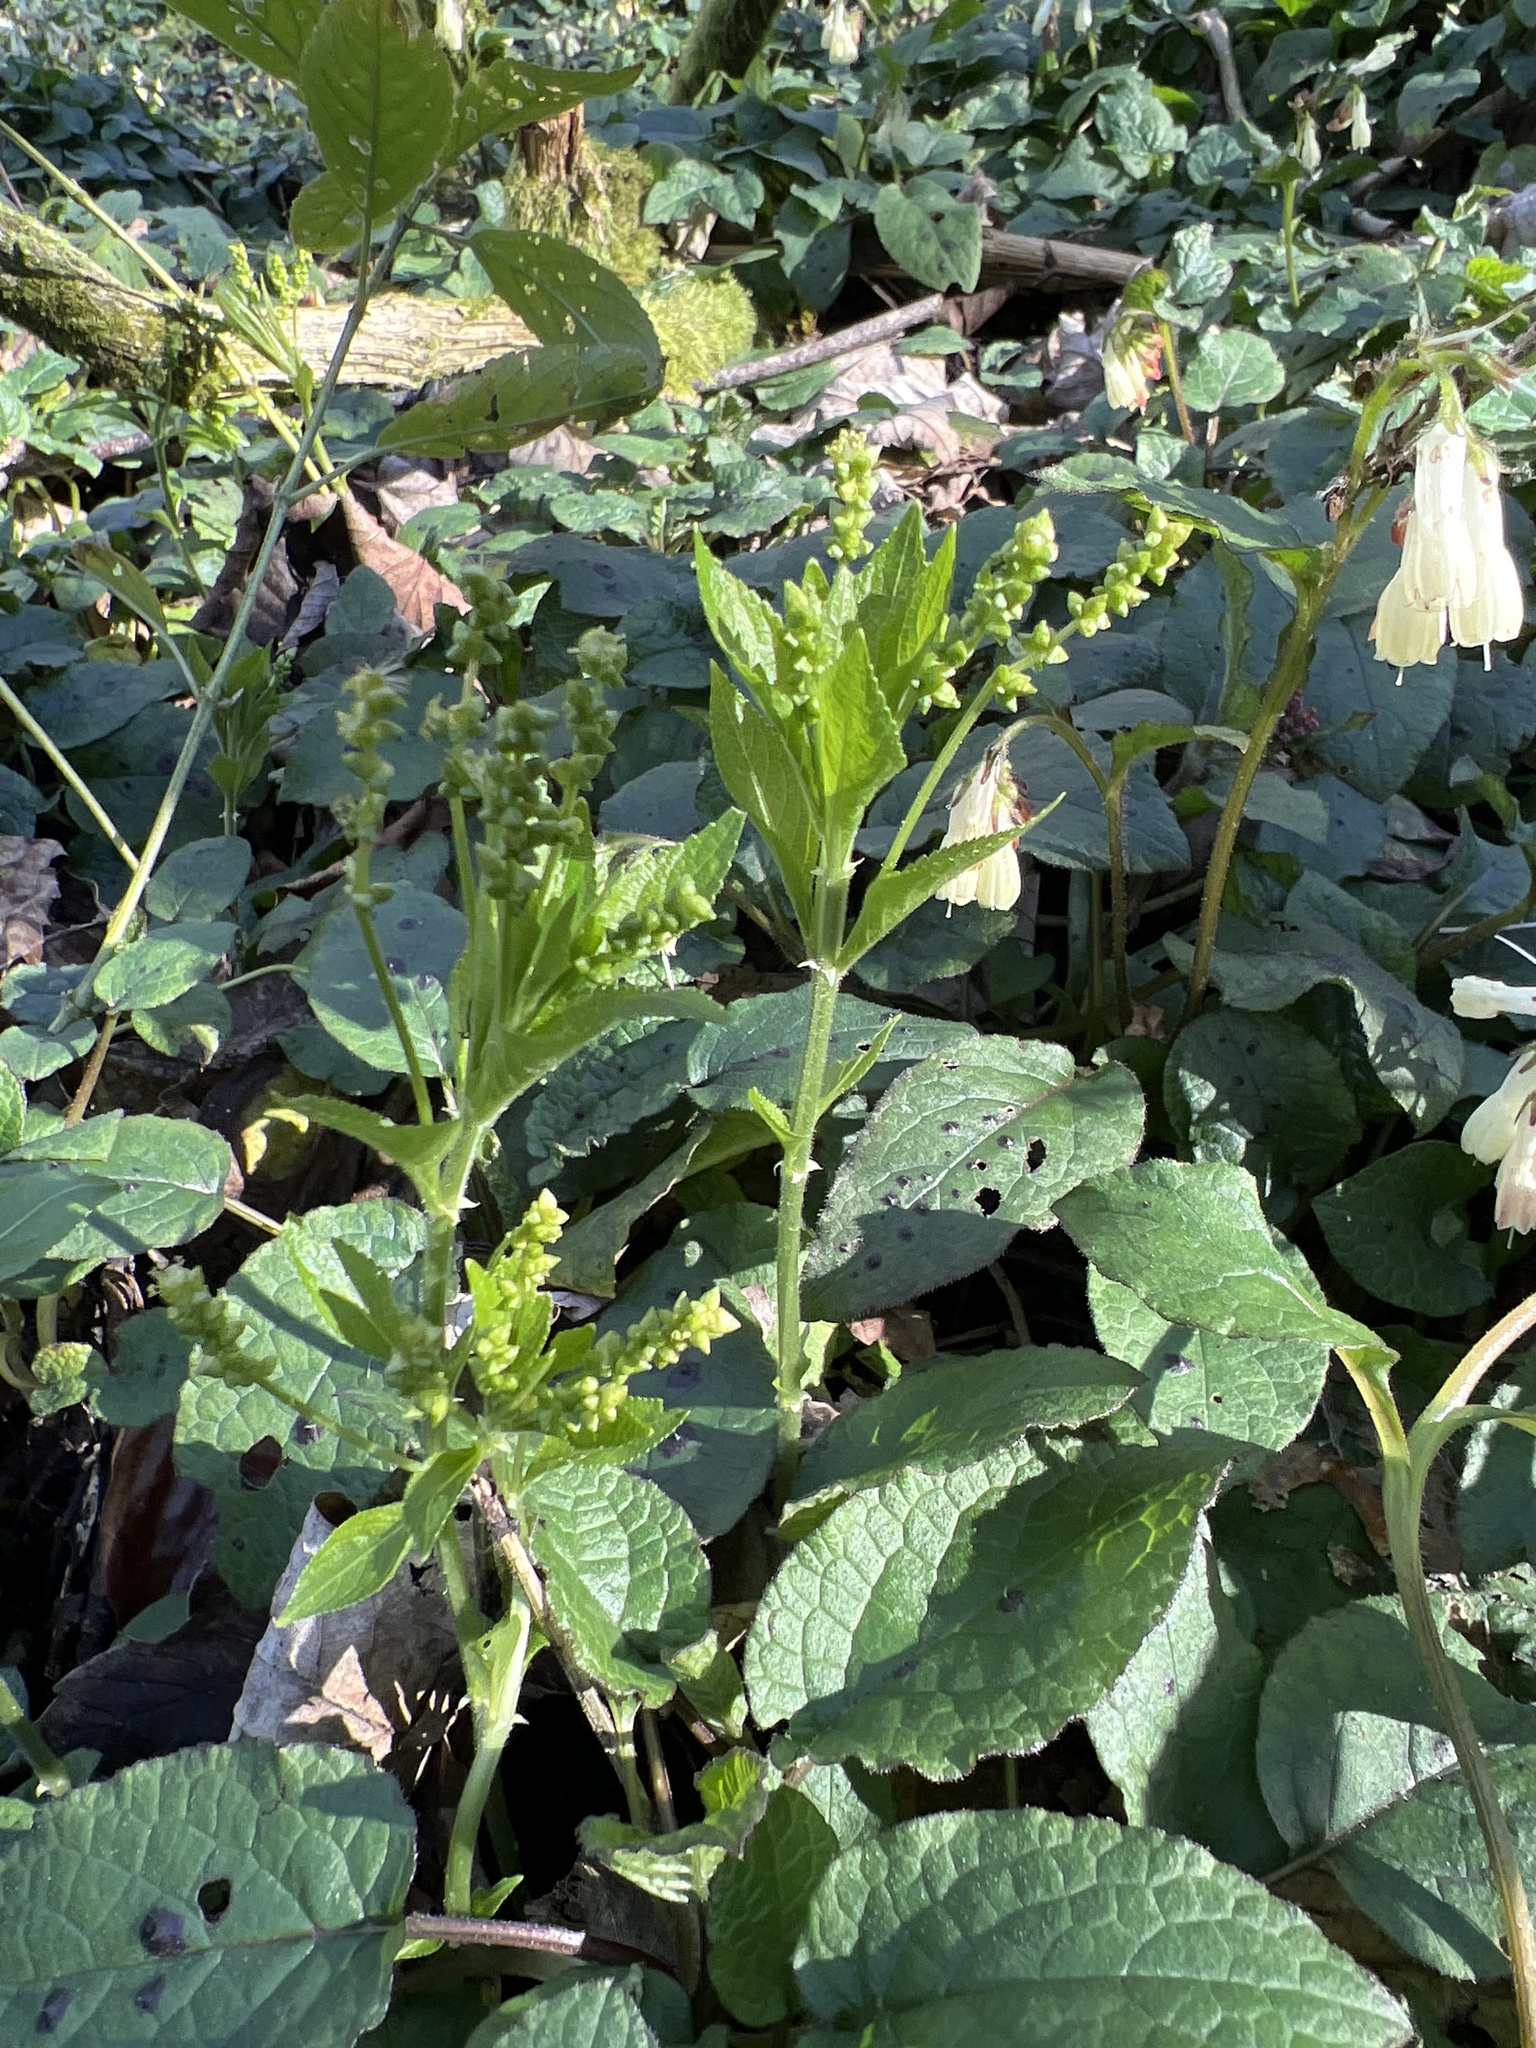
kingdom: Plantae
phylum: Tracheophyta
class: Magnoliopsida
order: Malpighiales
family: Euphorbiaceae
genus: Mercurialis
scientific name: Mercurialis perennis
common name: Dog mercury
